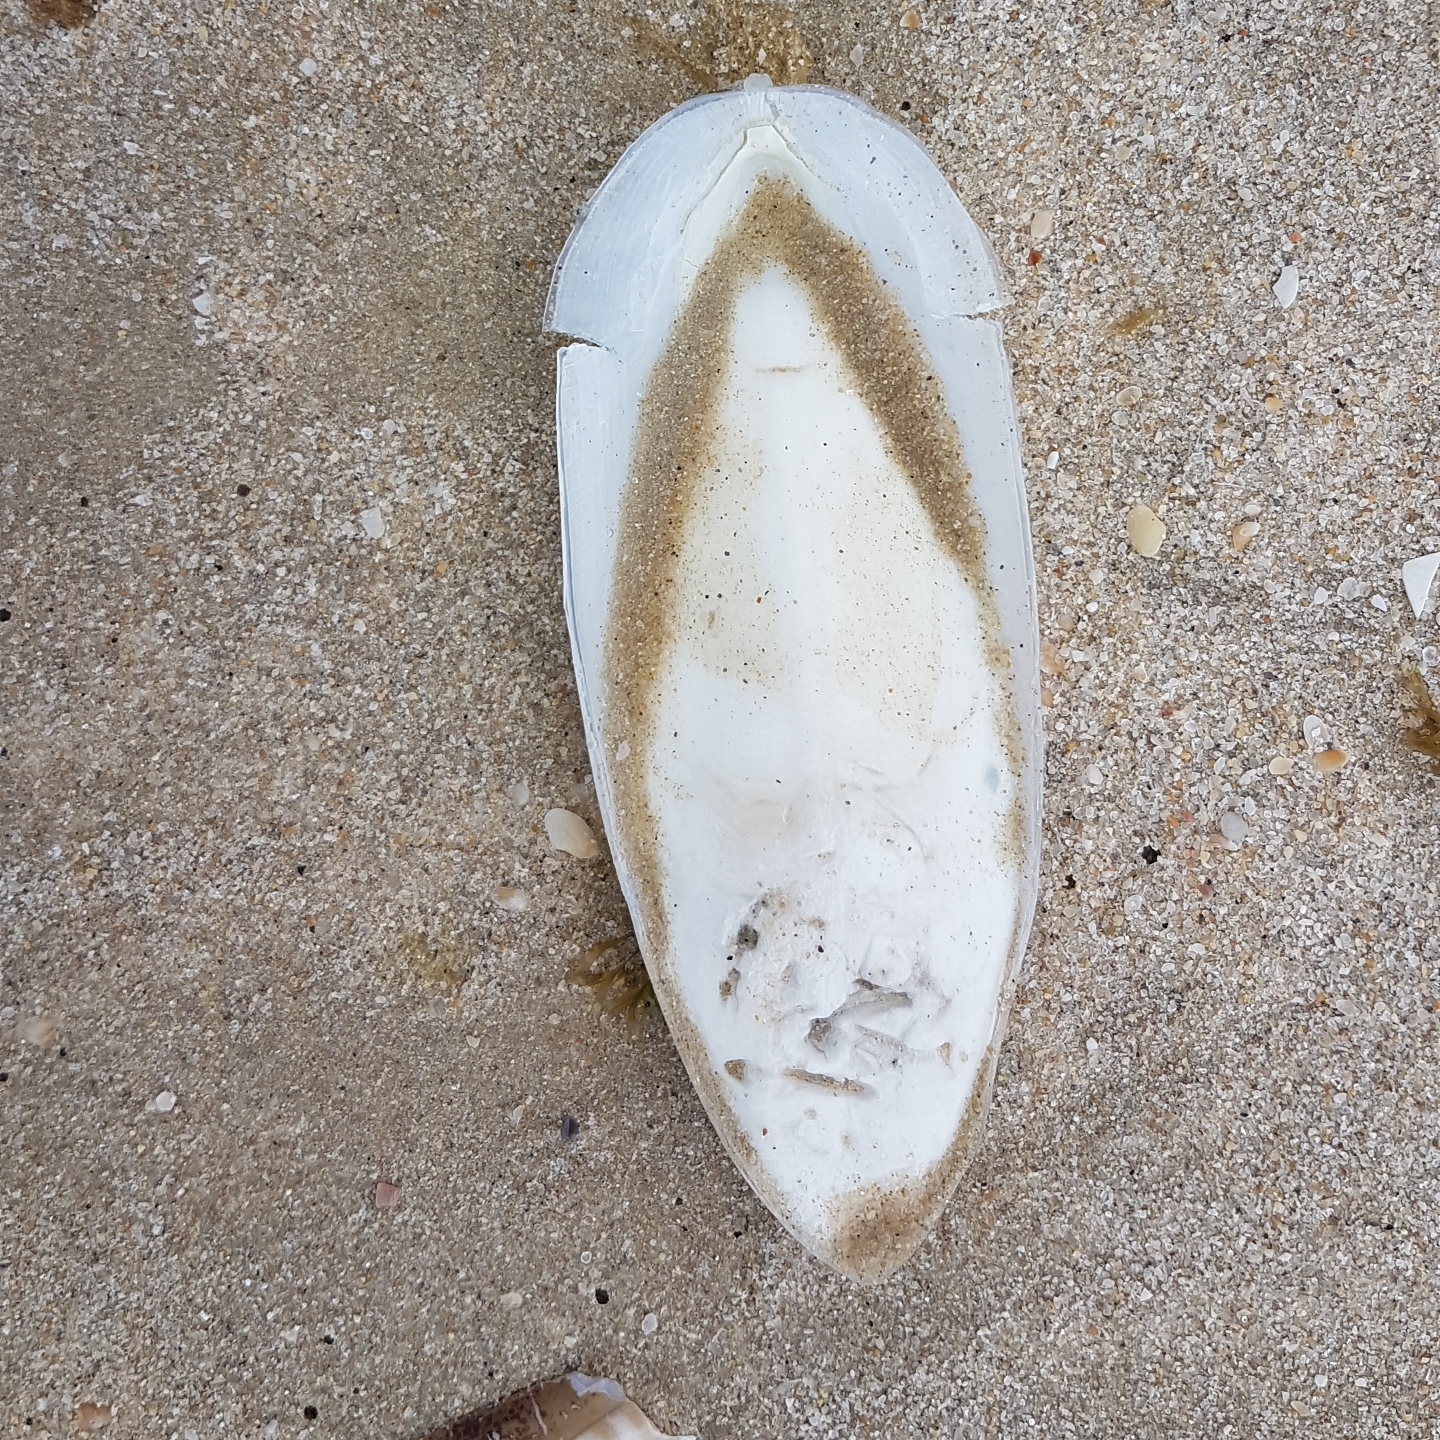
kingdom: Animalia
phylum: Mollusca
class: Cephalopoda
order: Sepiida
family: Sepiidae
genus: Sepia
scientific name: Sepia officinalis
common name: Common cuttlefish
